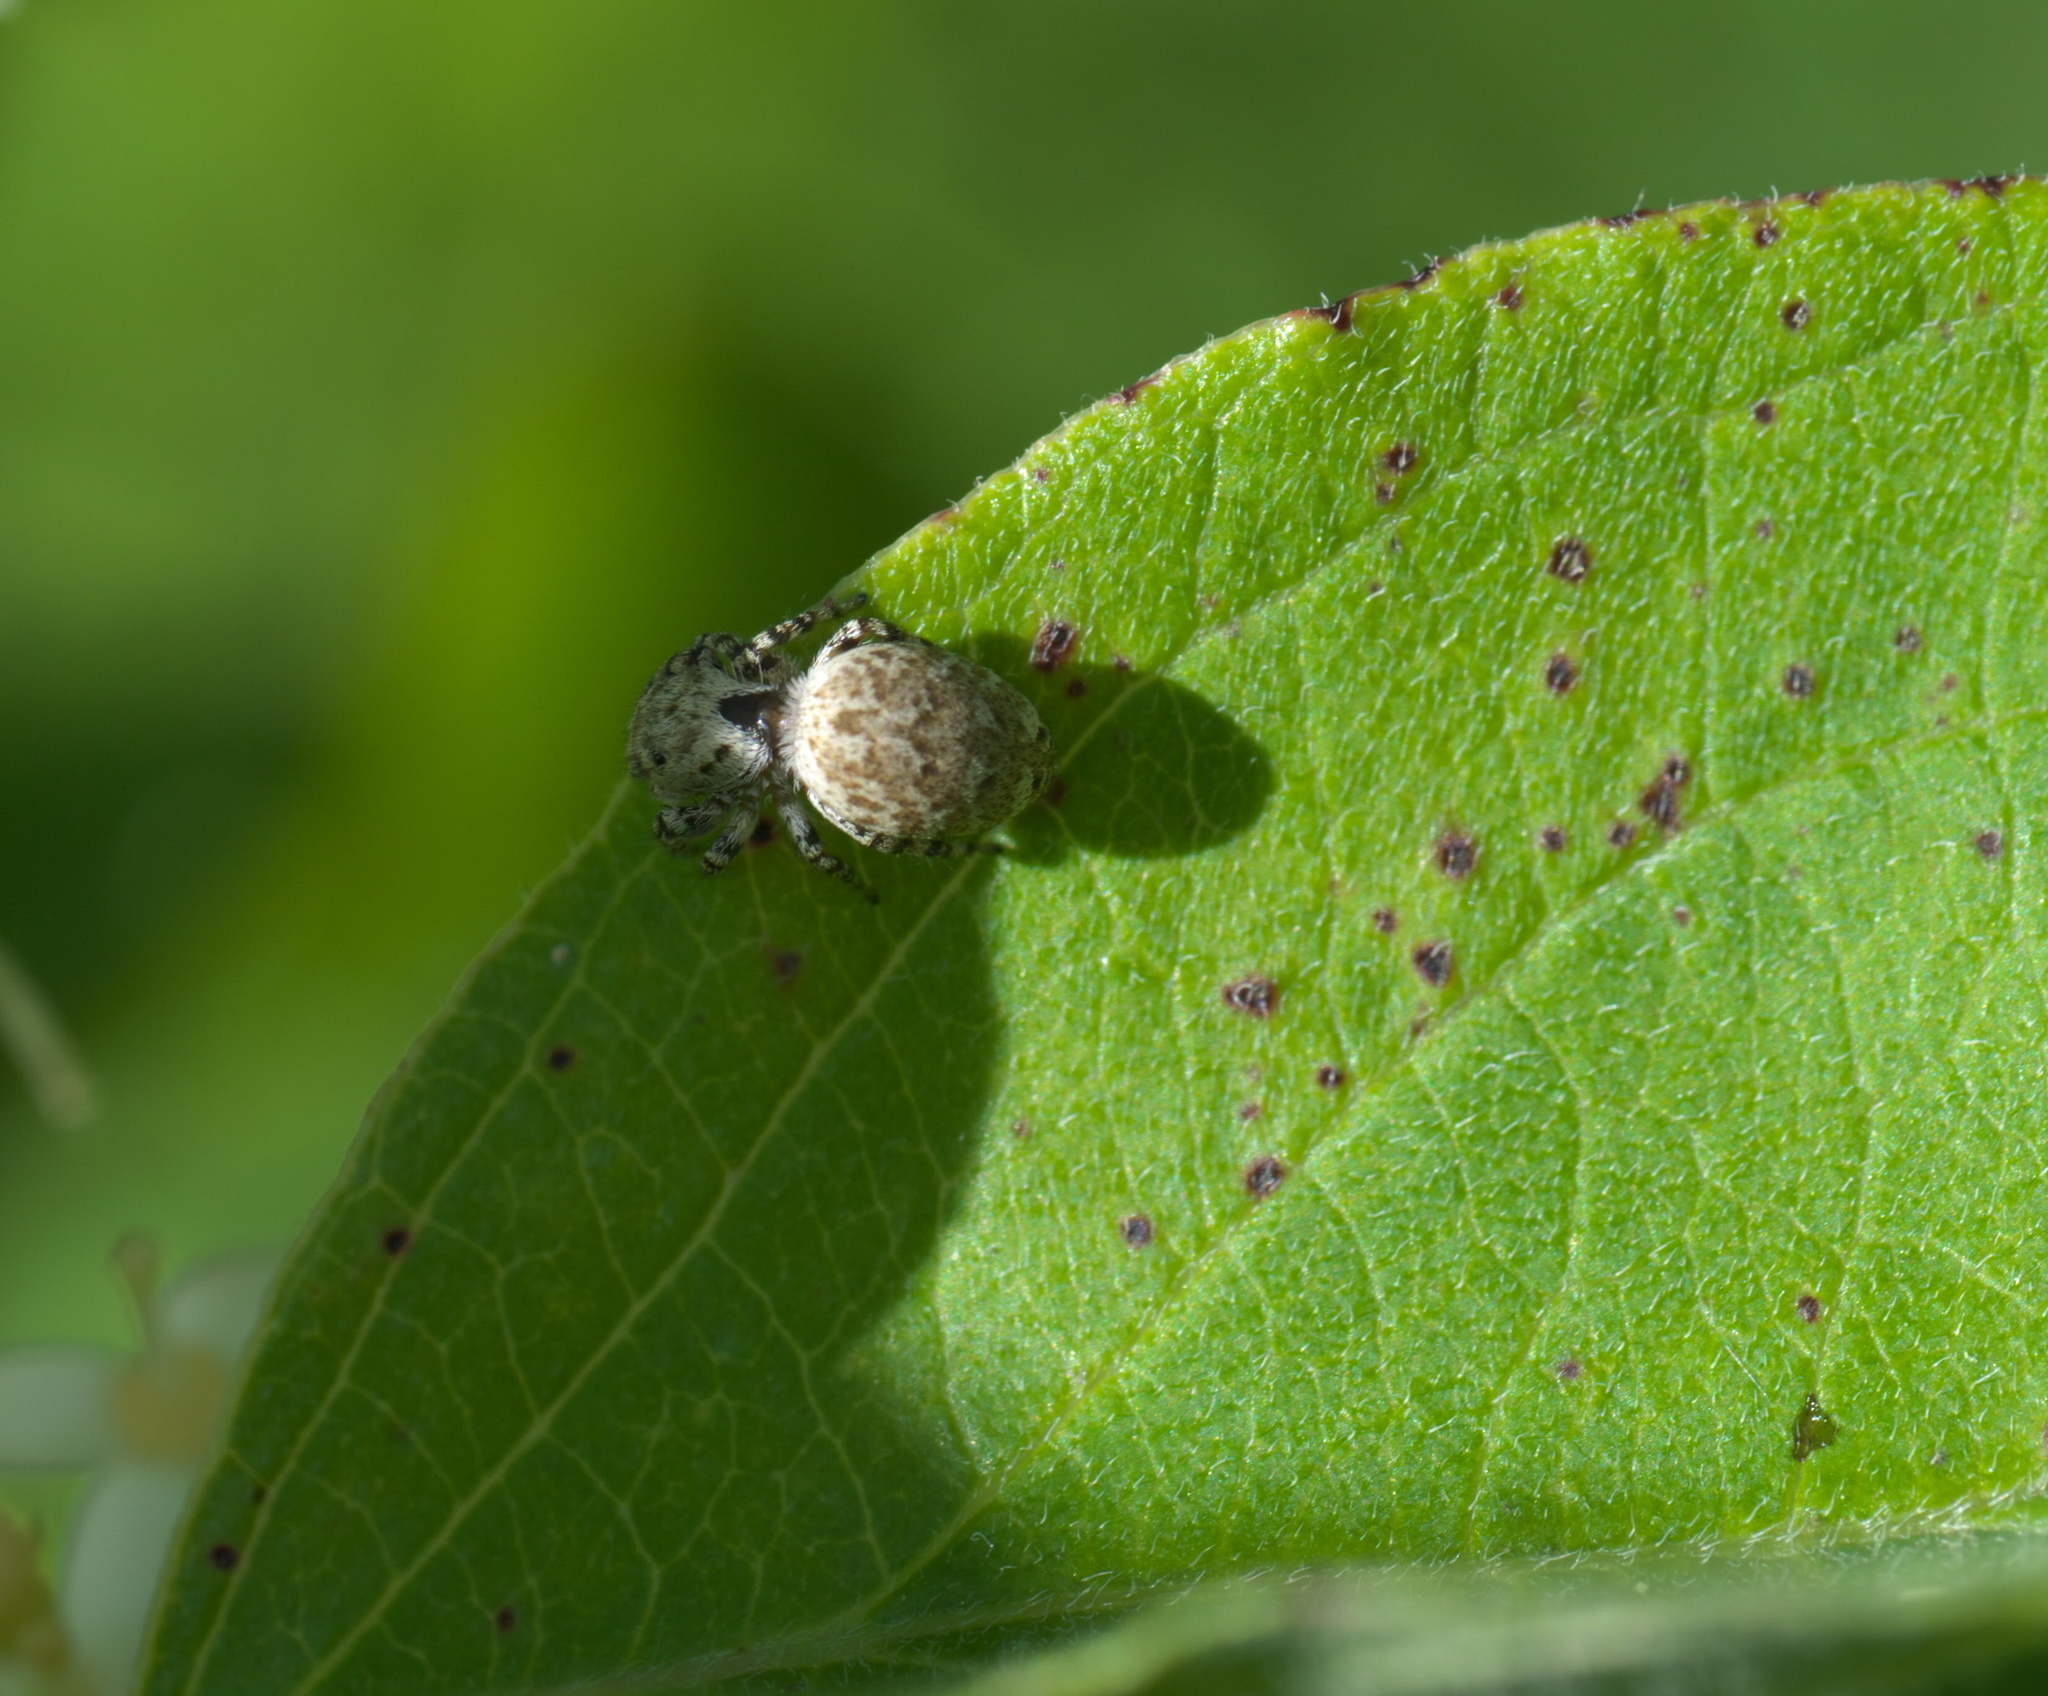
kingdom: Animalia
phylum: Arthropoda
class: Arachnida
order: Araneae
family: Salticidae
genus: Pelegrina
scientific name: Pelegrina galathea
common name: Jumping spiders
